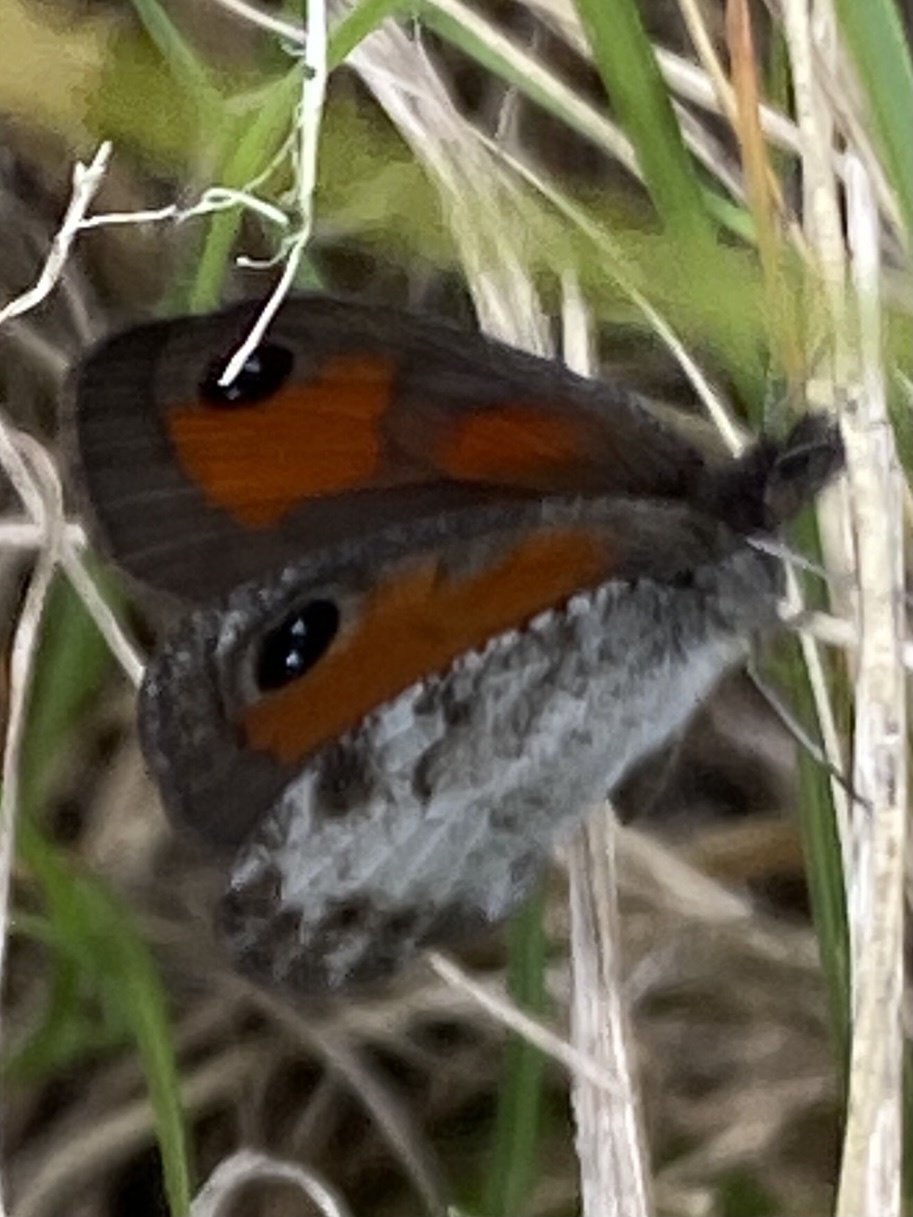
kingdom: Animalia
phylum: Arthropoda
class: Insecta
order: Lepidoptera
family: Nymphalidae
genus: Pseudonympha
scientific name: Pseudonympha magus
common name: Silver-bottom brown
